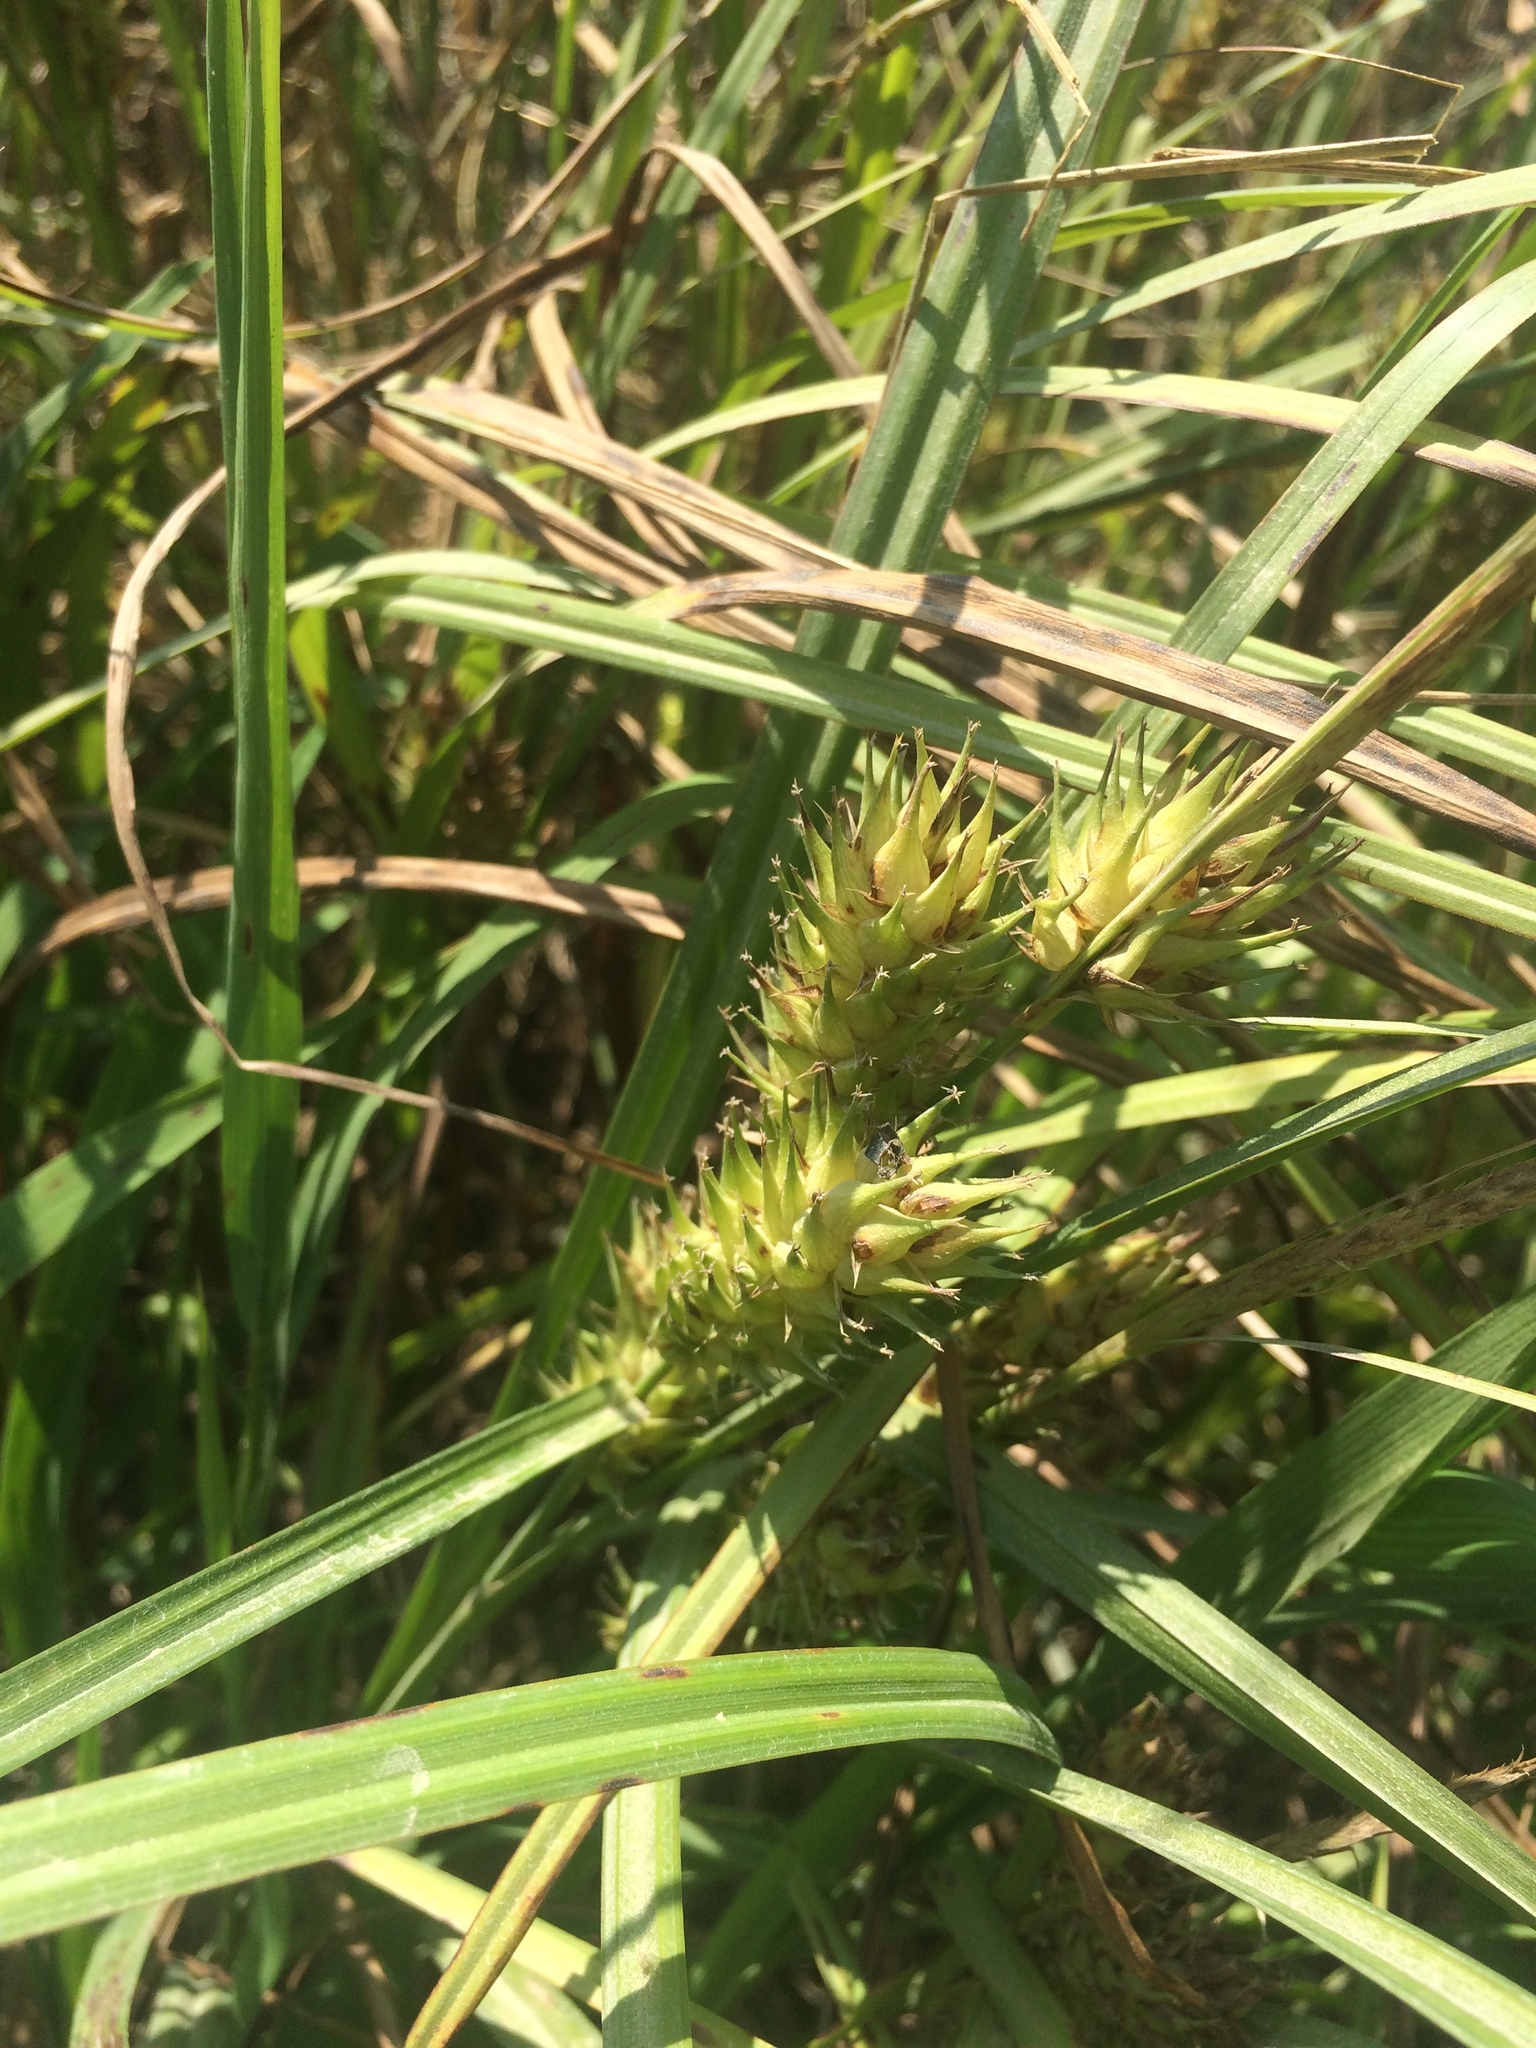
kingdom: Plantae
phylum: Tracheophyta
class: Liliopsida
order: Poales
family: Cyperaceae
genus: Carex
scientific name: Carex lupulina
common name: Hop sedge
